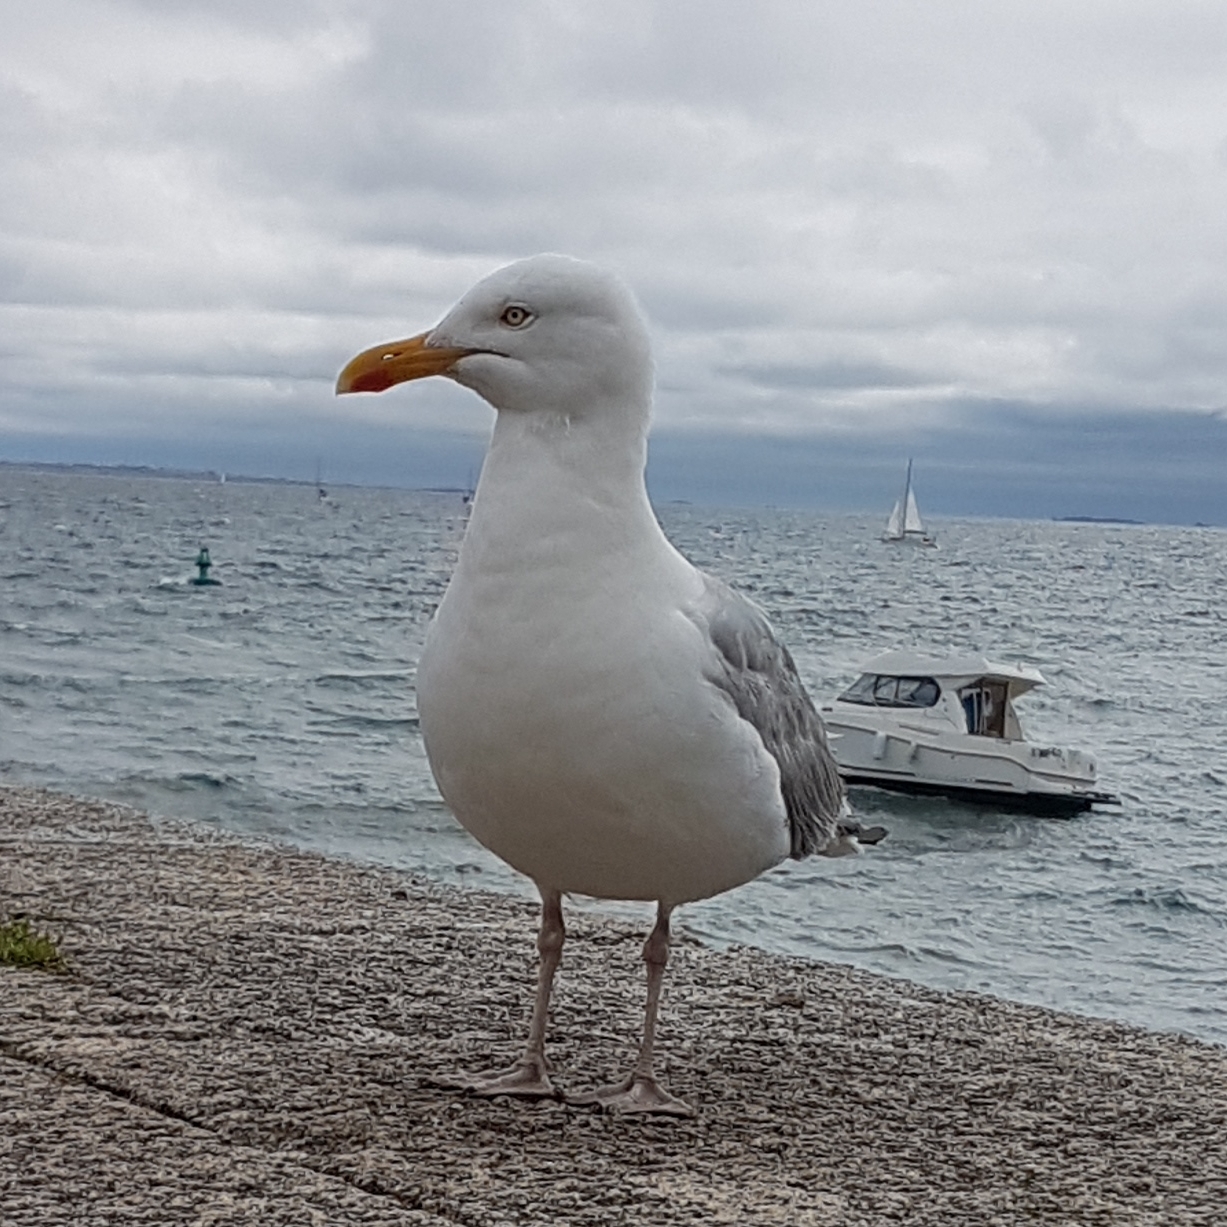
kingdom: Animalia
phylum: Chordata
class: Aves
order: Charadriiformes
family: Laridae
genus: Larus
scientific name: Larus argentatus
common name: Herring gull
